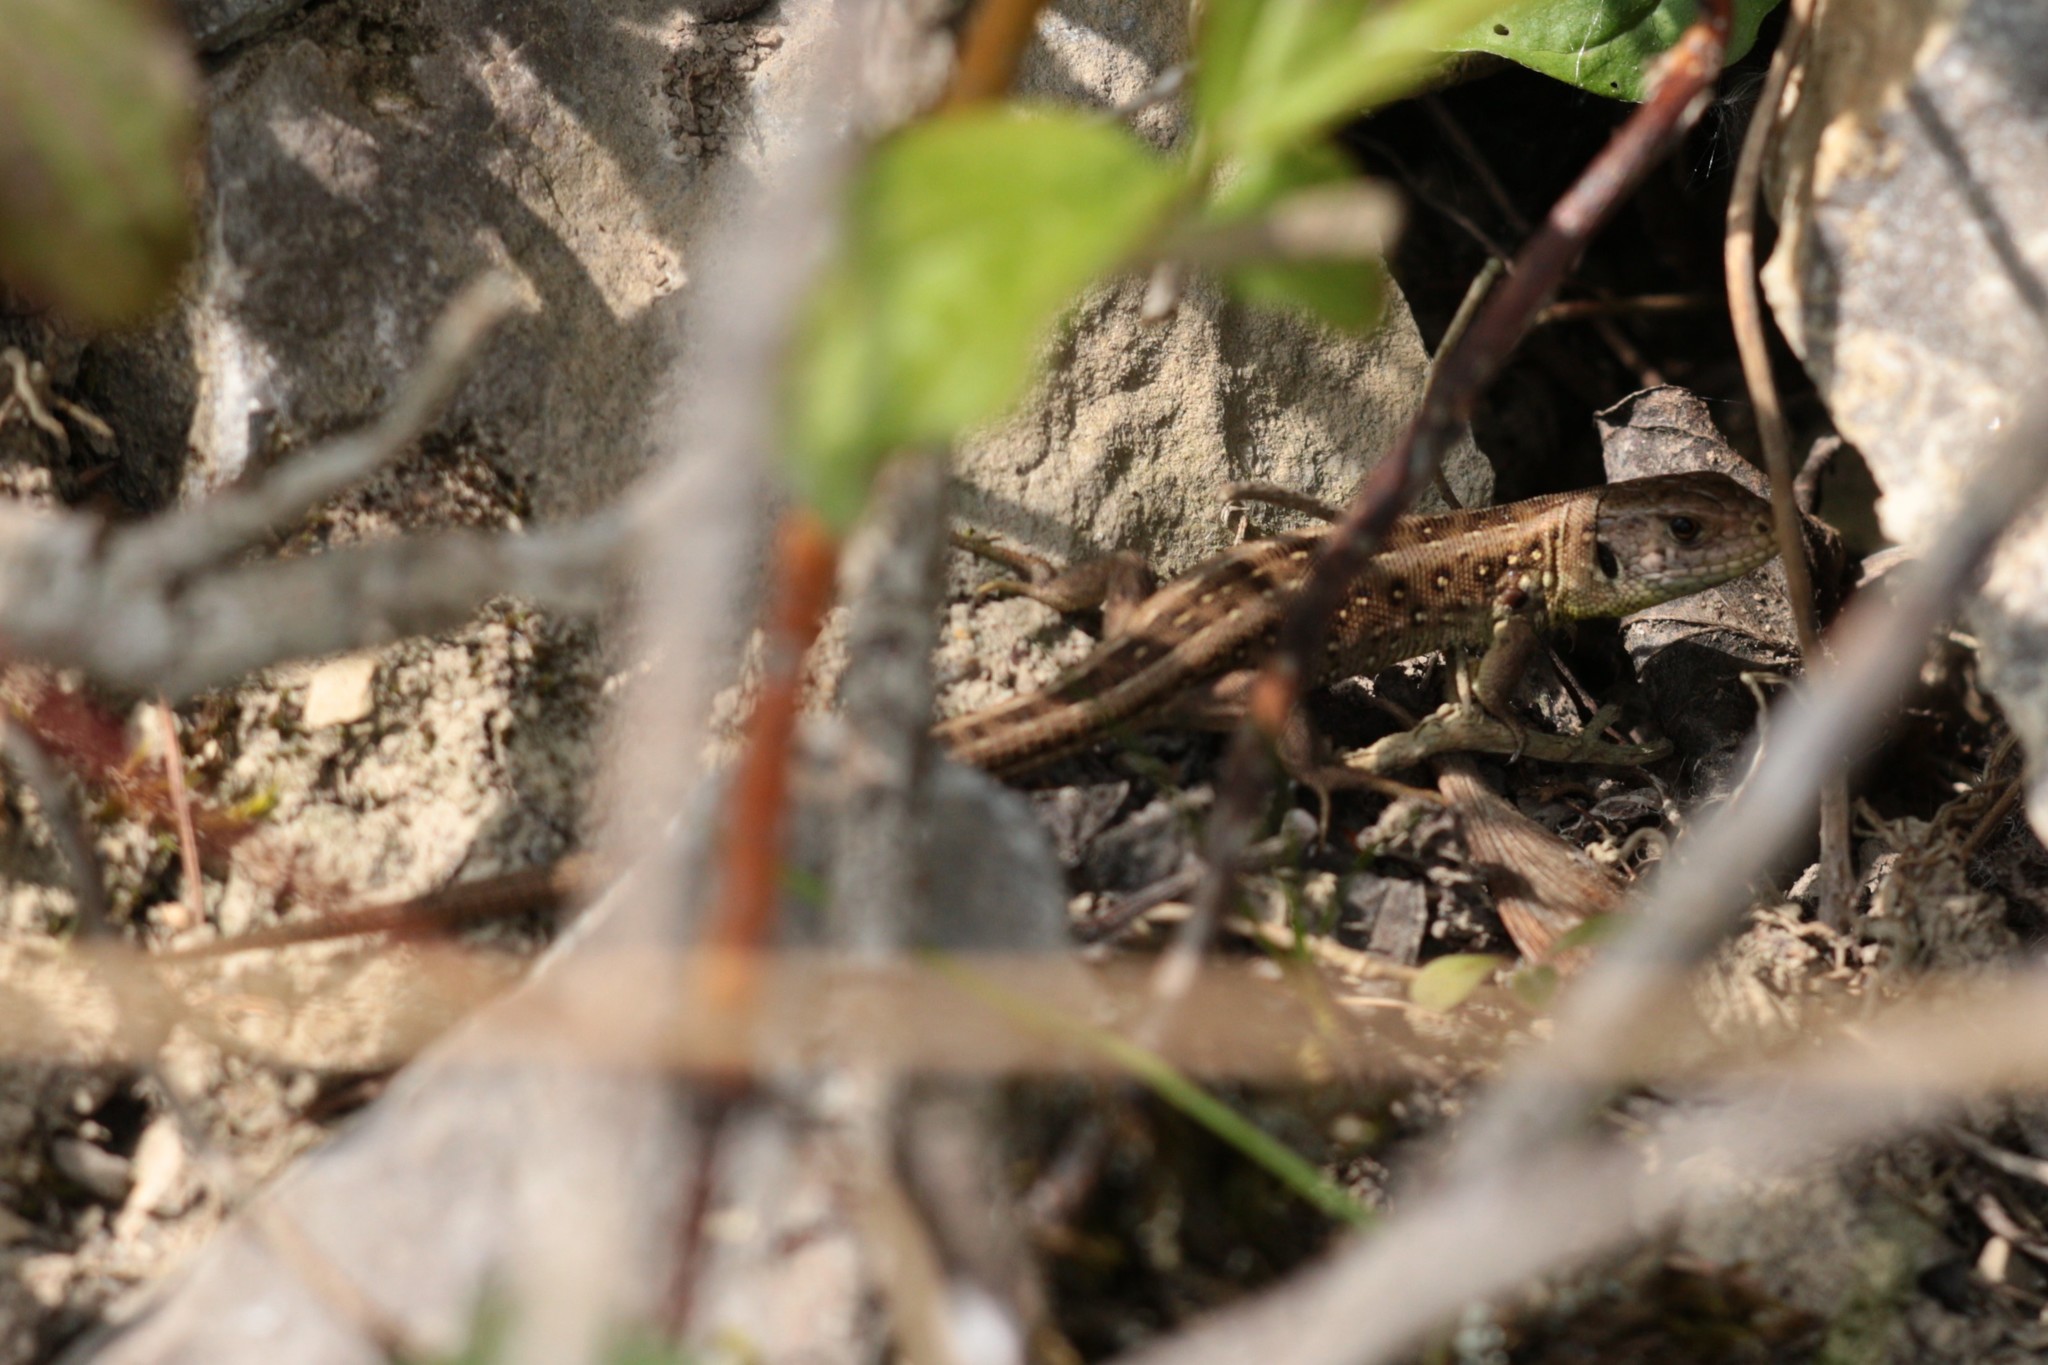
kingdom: Animalia
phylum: Chordata
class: Squamata
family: Lacertidae
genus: Lacerta
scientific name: Lacerta agilis
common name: Sand lizard
